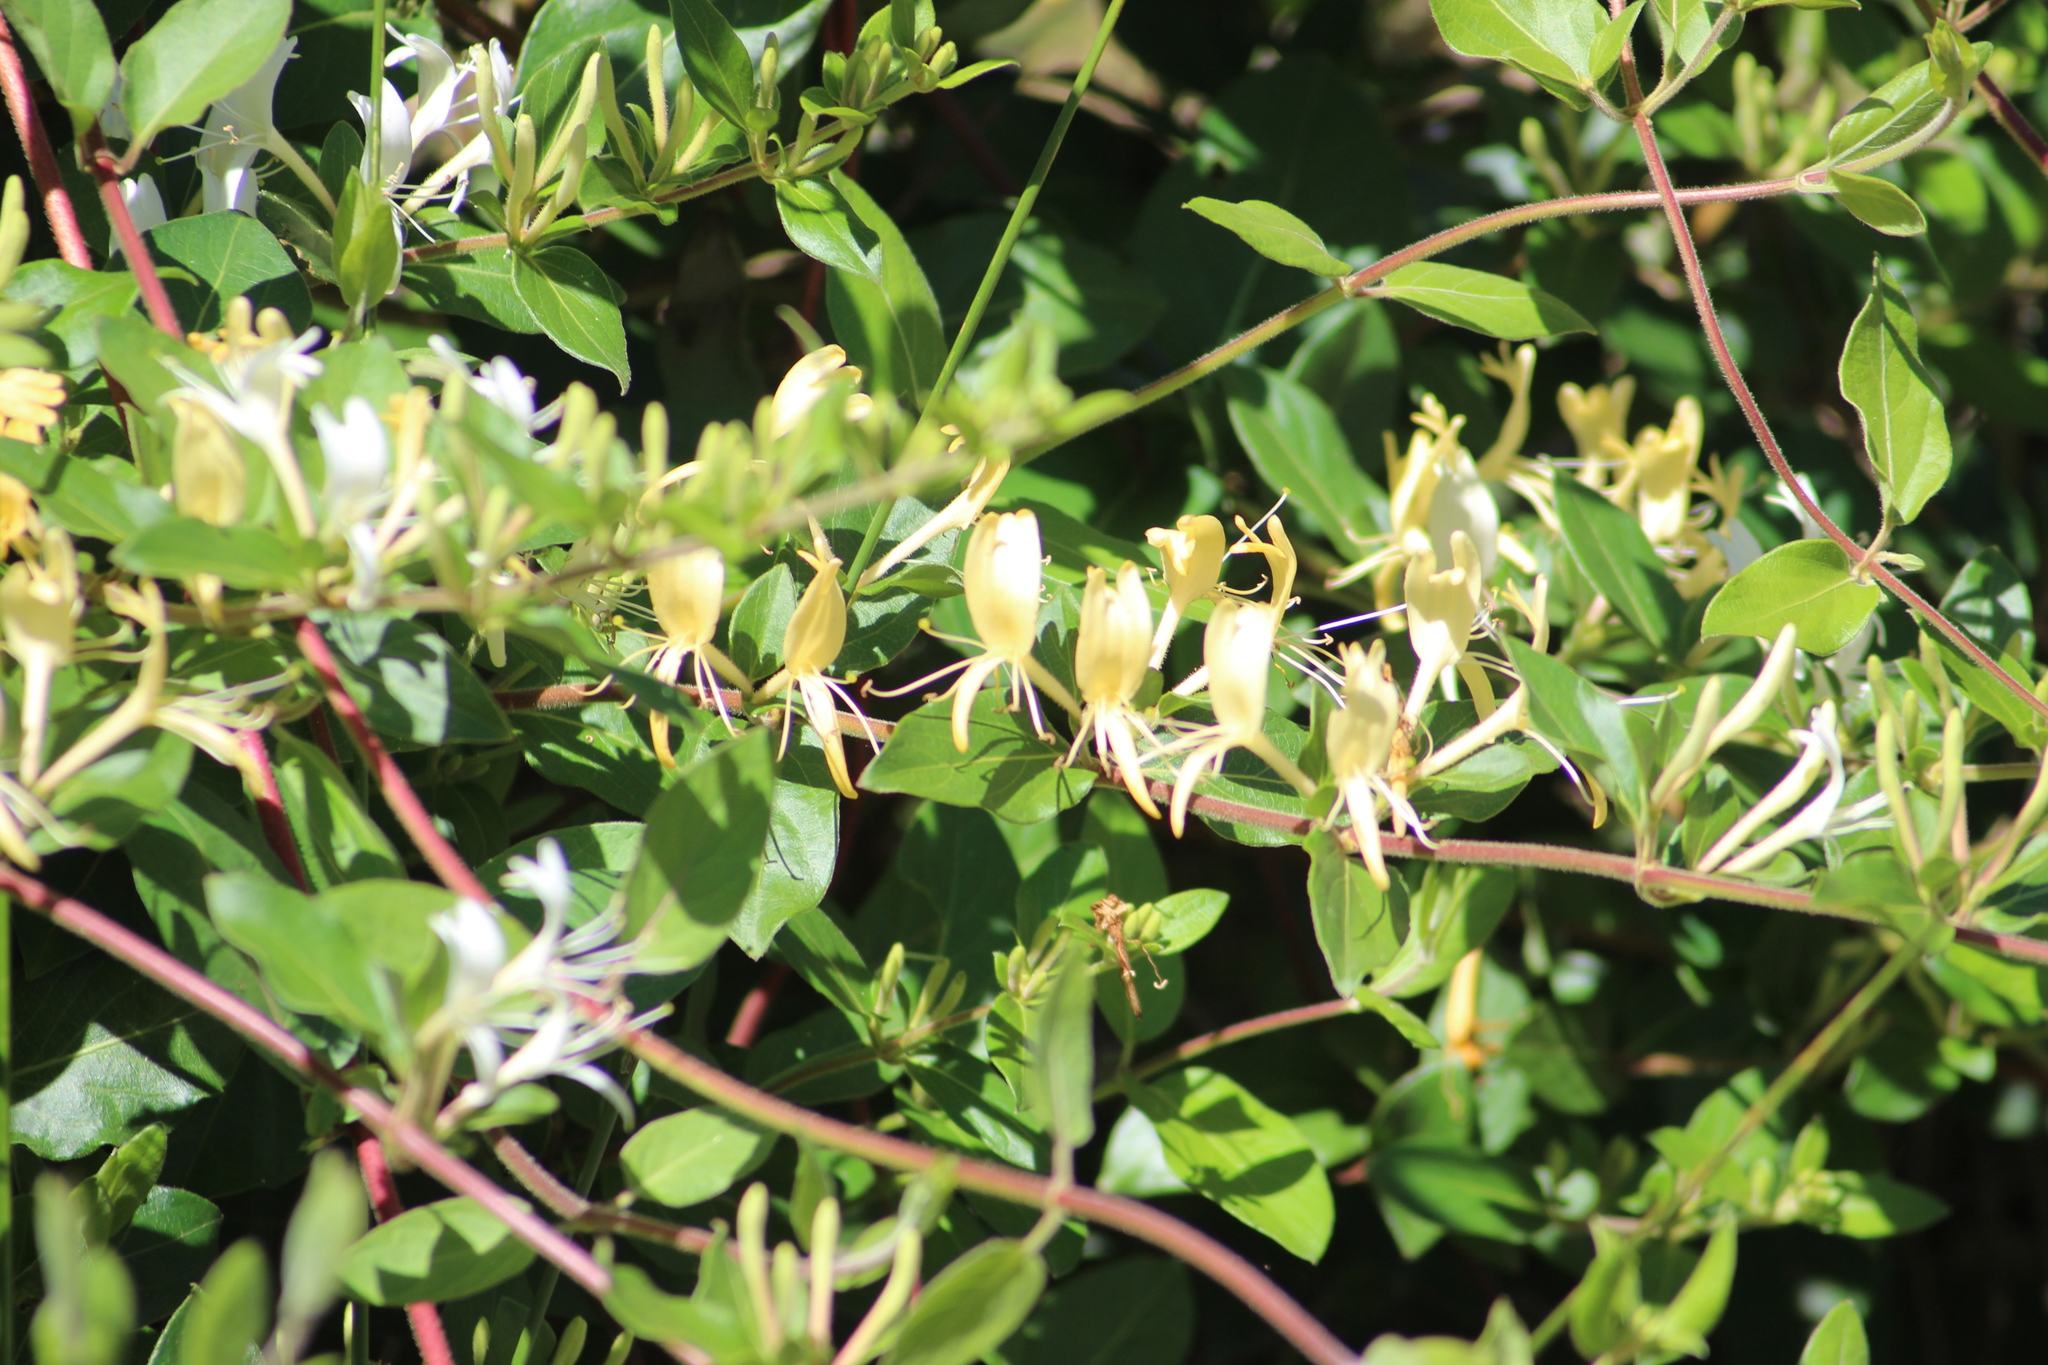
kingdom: Plantae
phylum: Tracheophyta
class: Magnoliopsida
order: Dipsacales
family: Caprifoliaceae
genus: Lonicera
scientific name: Lonicera japonica
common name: Japanese honeysuckle
